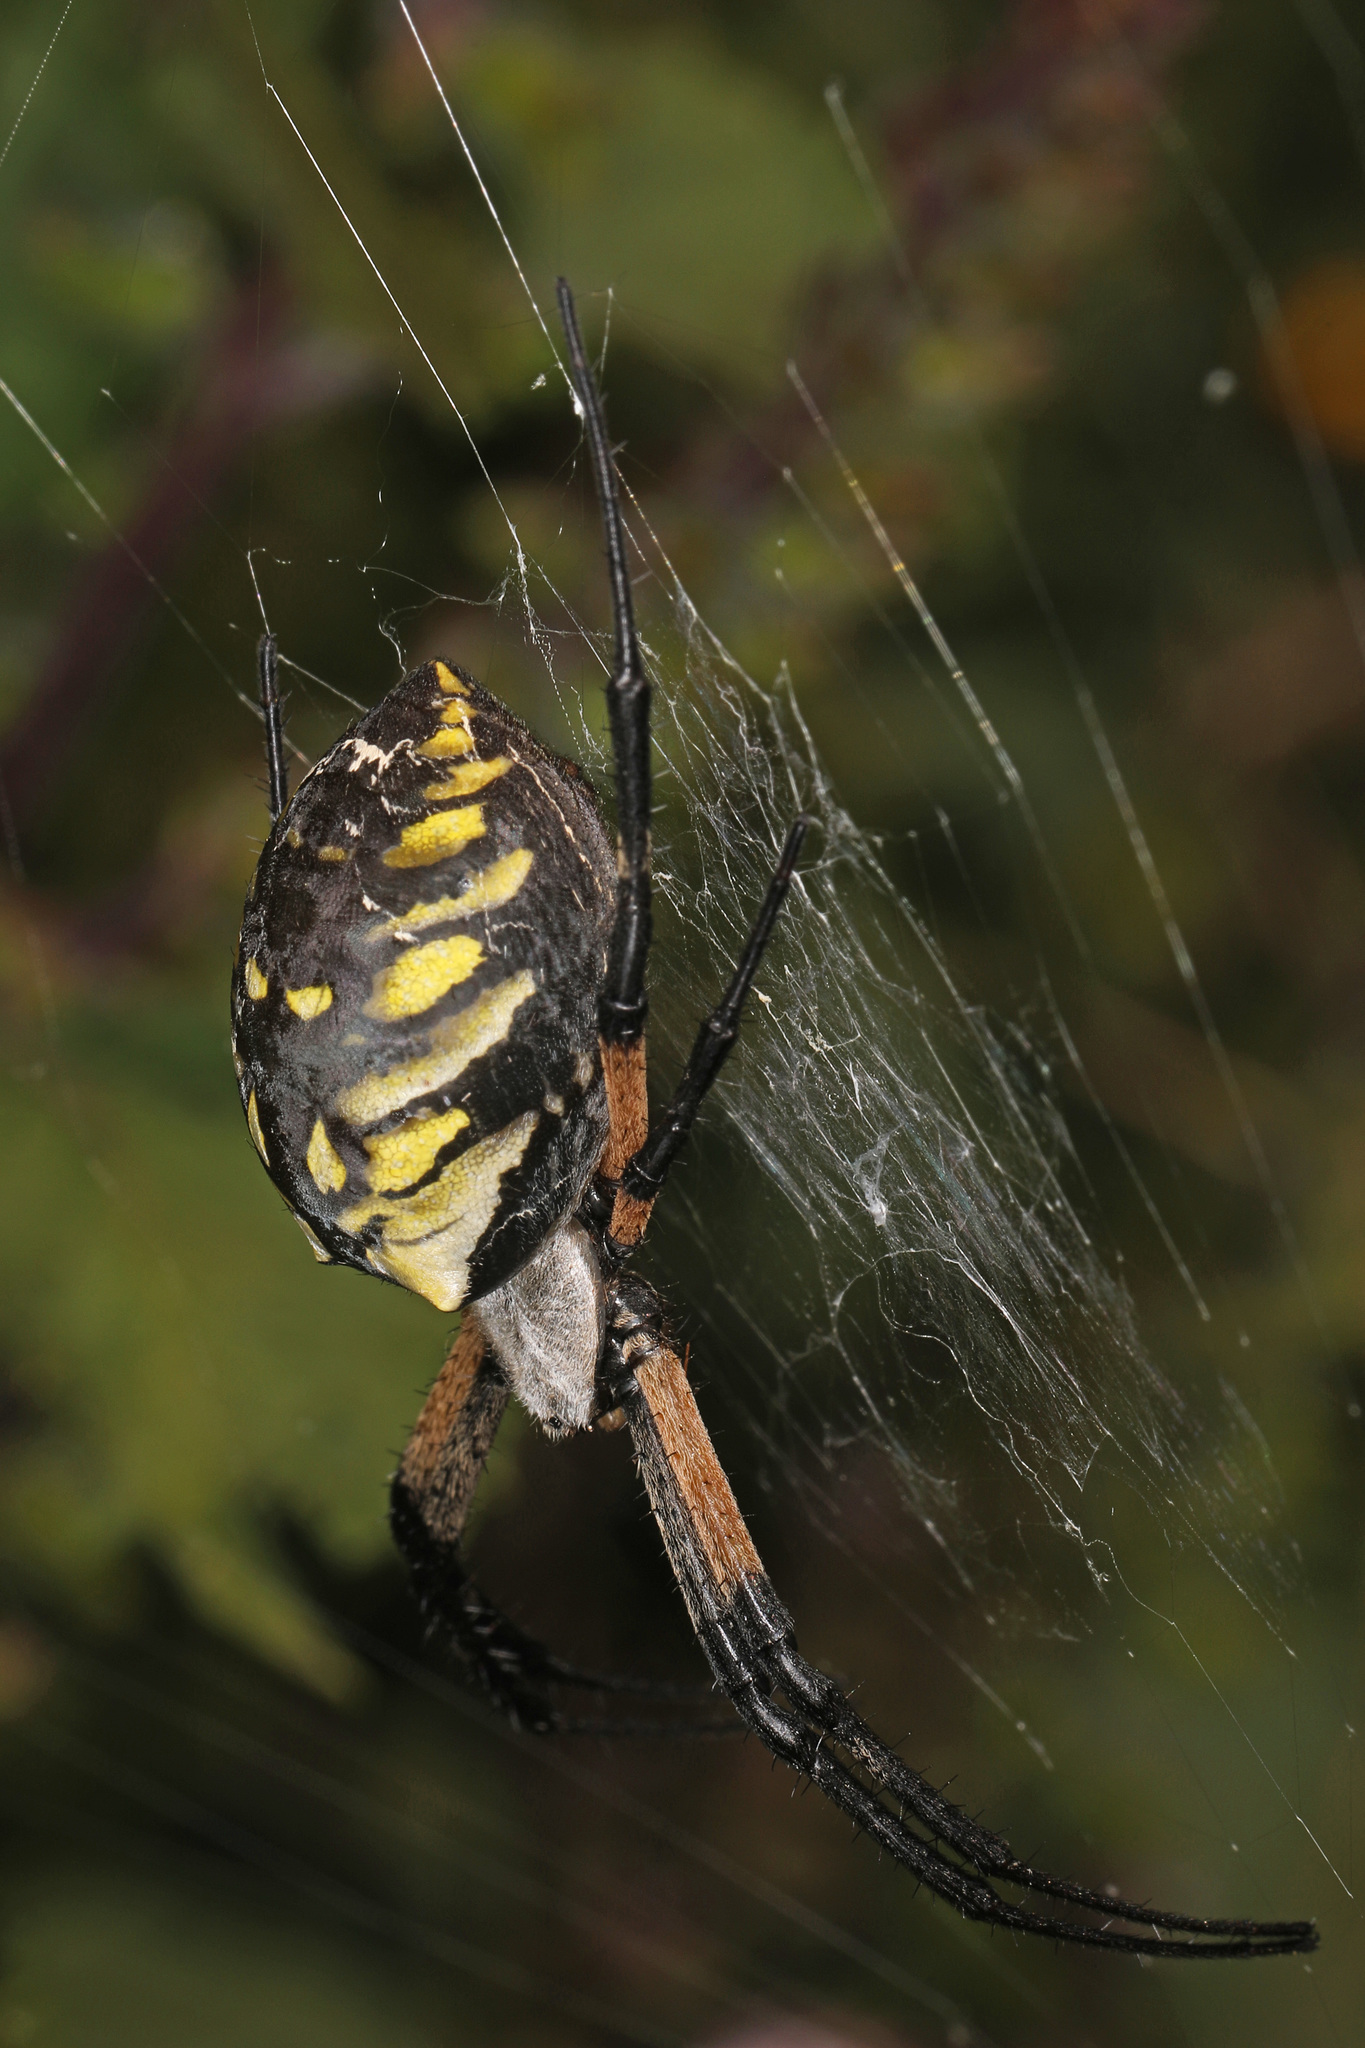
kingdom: Animalia
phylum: Arthropoda
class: Arachnida
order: Araneae
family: Araneidae
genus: Argiope
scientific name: Argiope aurantia
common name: Orb weavers
